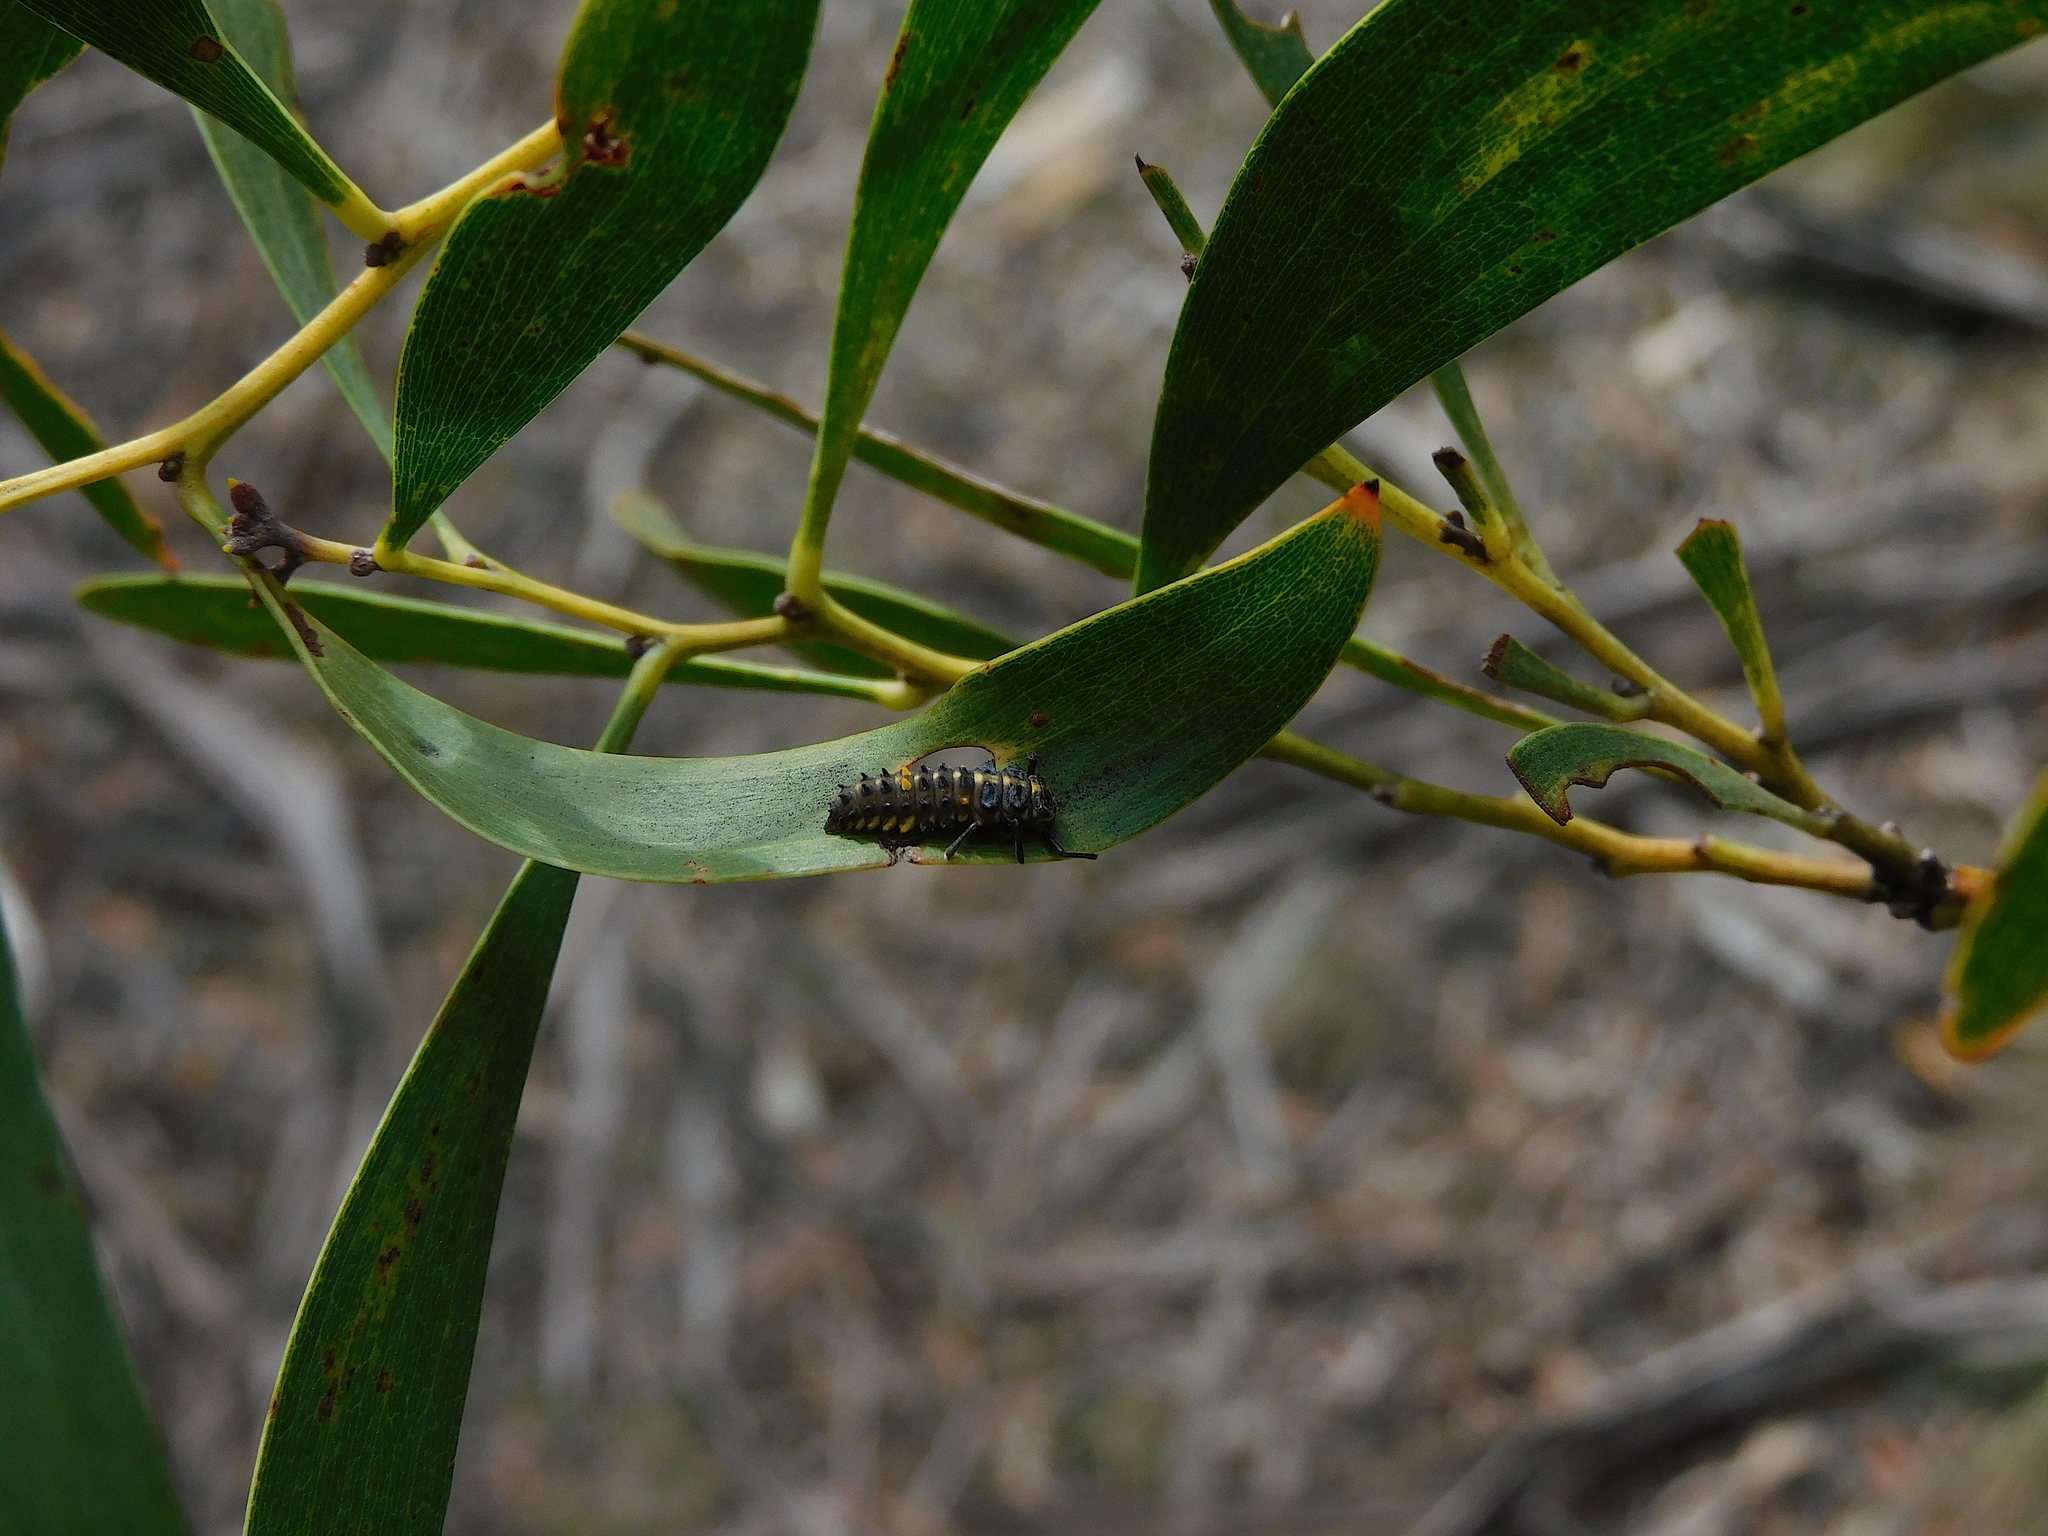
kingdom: Animalia
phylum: Arthropoda
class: Insecta
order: Coleoptera
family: Coccinellidae
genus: Cleobora
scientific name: Cleobora
